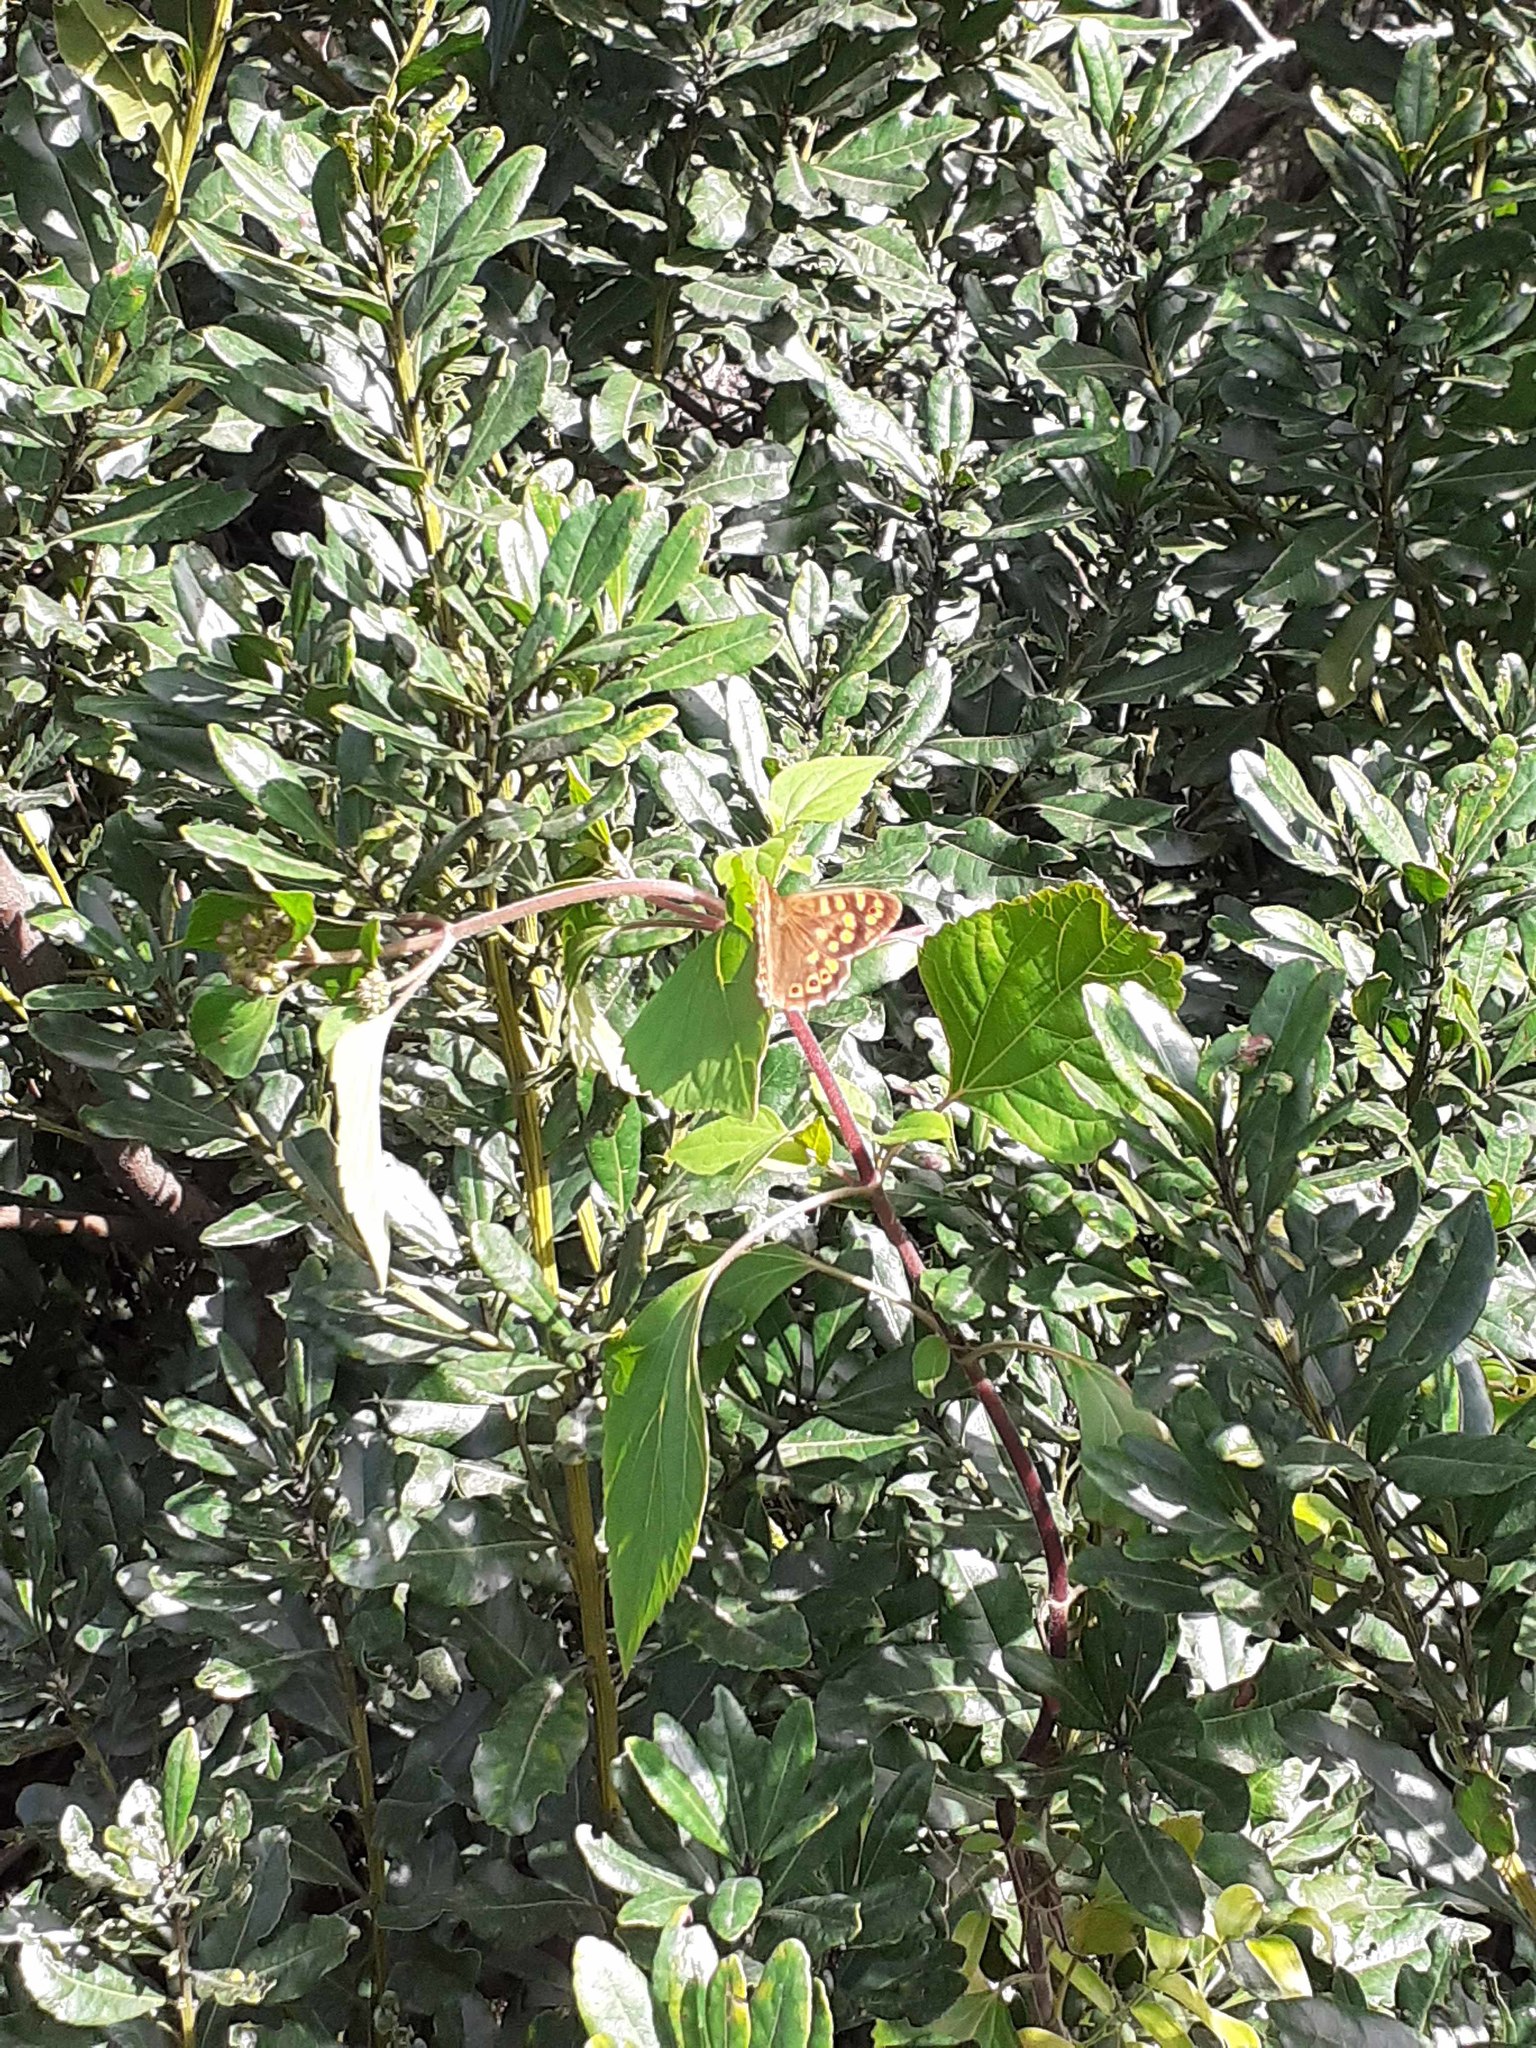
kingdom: Animalia
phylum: Arthropoda
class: Insecta
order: Lepidoptera
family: Nymphalidae
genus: Pararge
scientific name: Pararge aegeria
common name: Speckled wood
